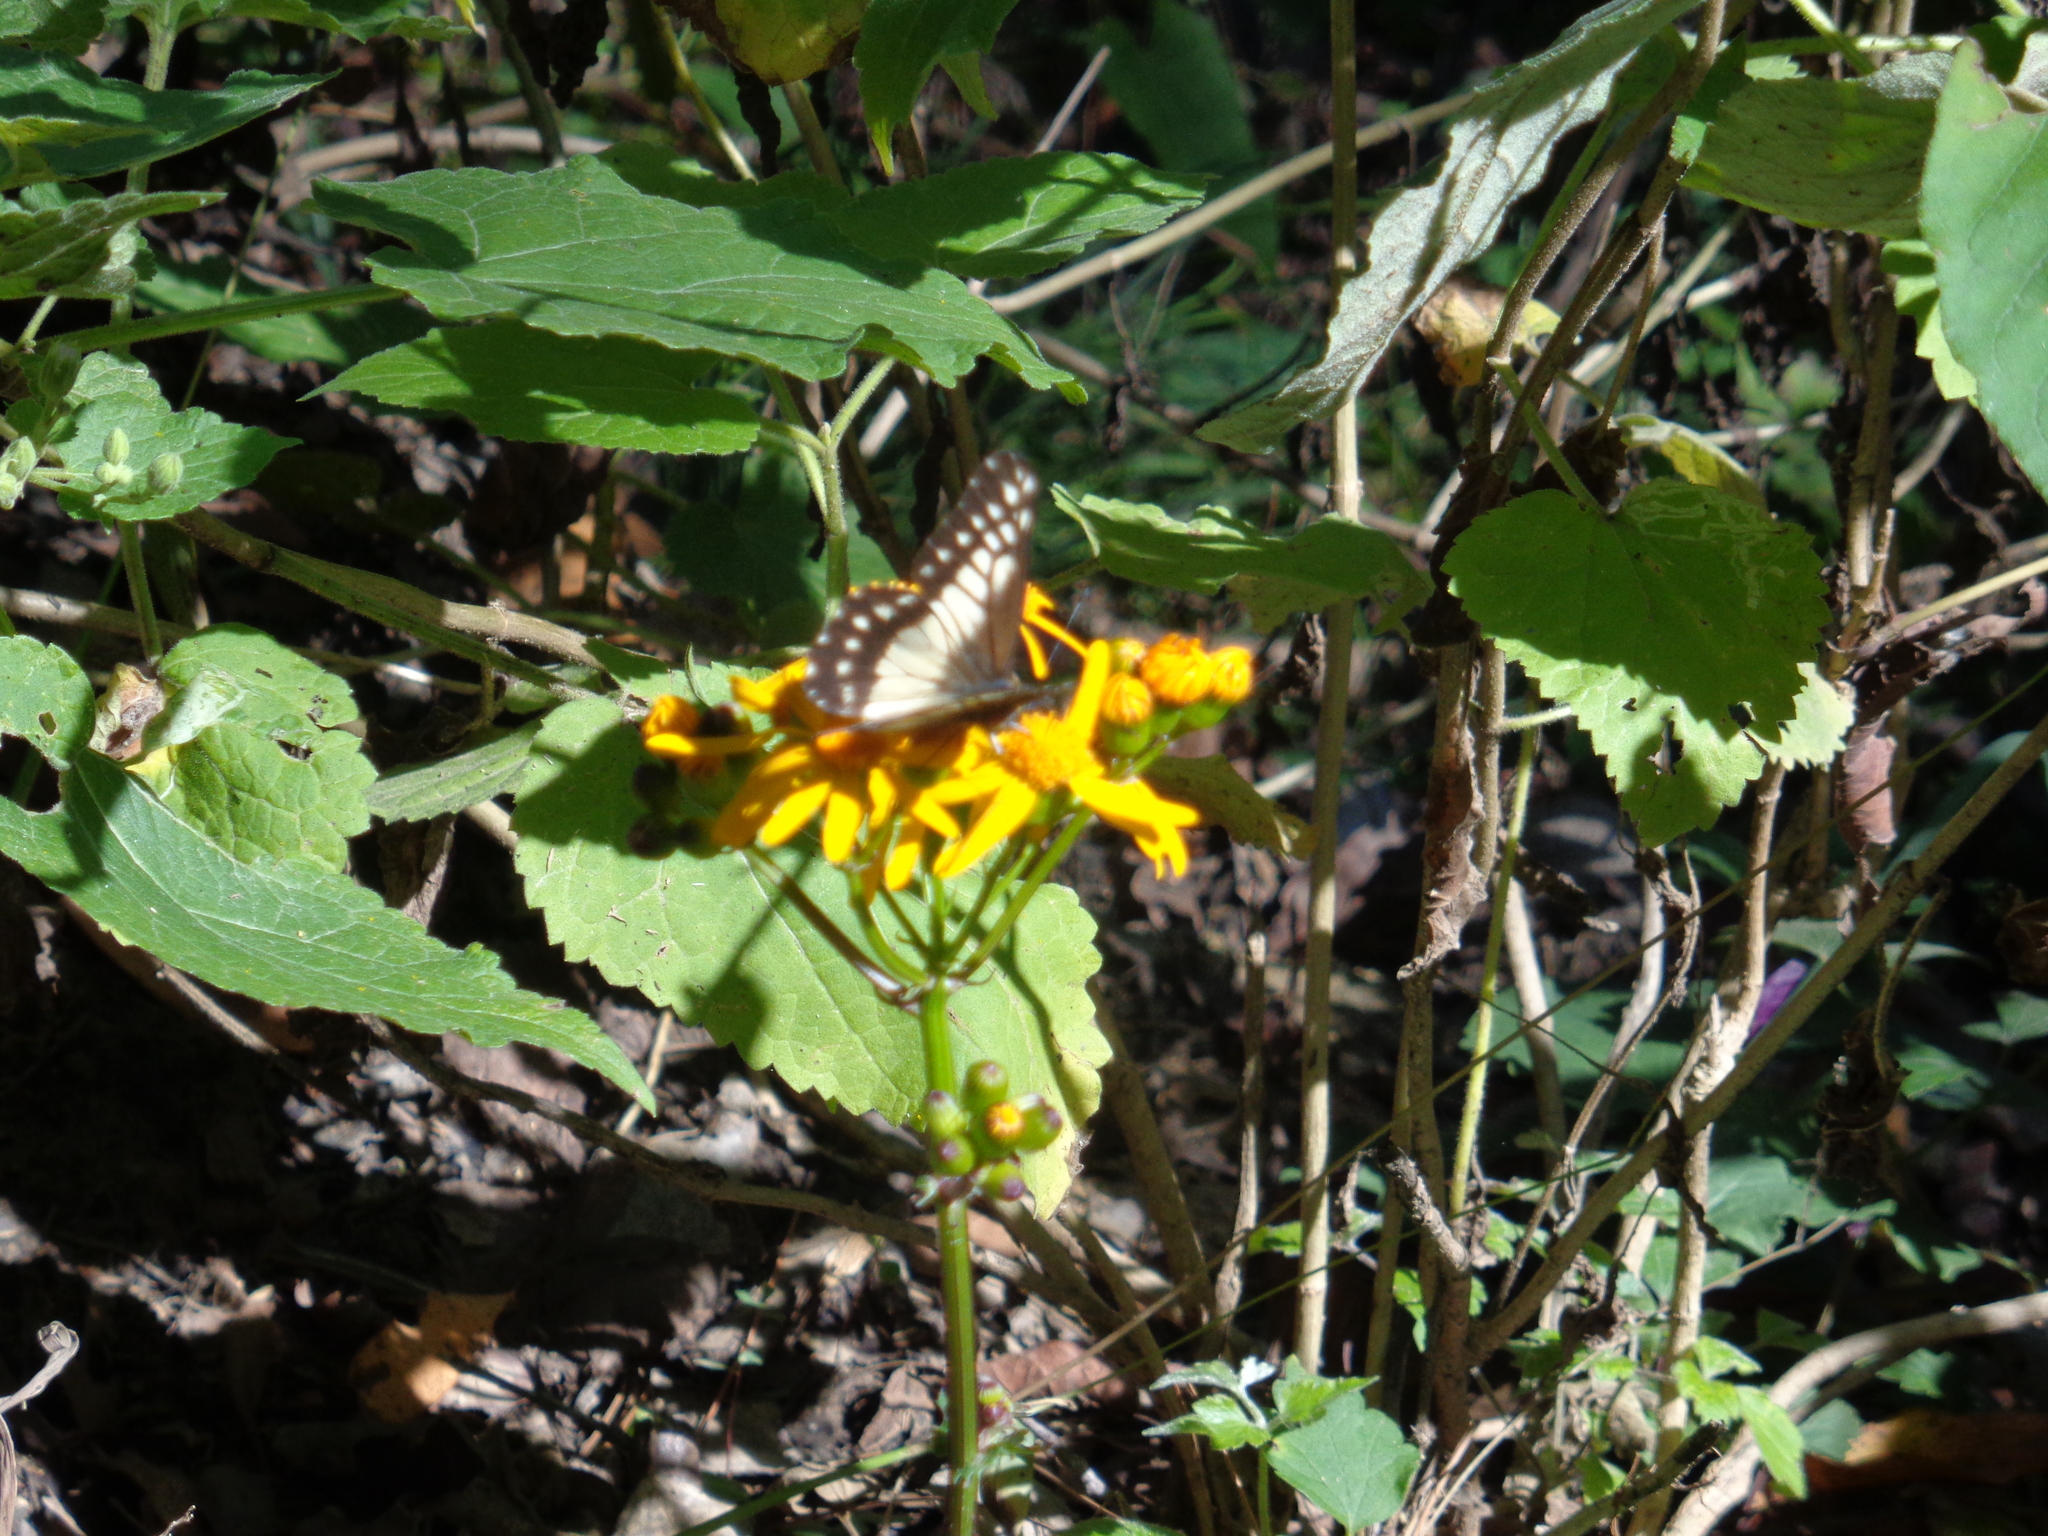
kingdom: Animalia
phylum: Arthropoda
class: Insecta
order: Lepidoptera
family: Pieridae
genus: Archonias
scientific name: Archonias nimbice
